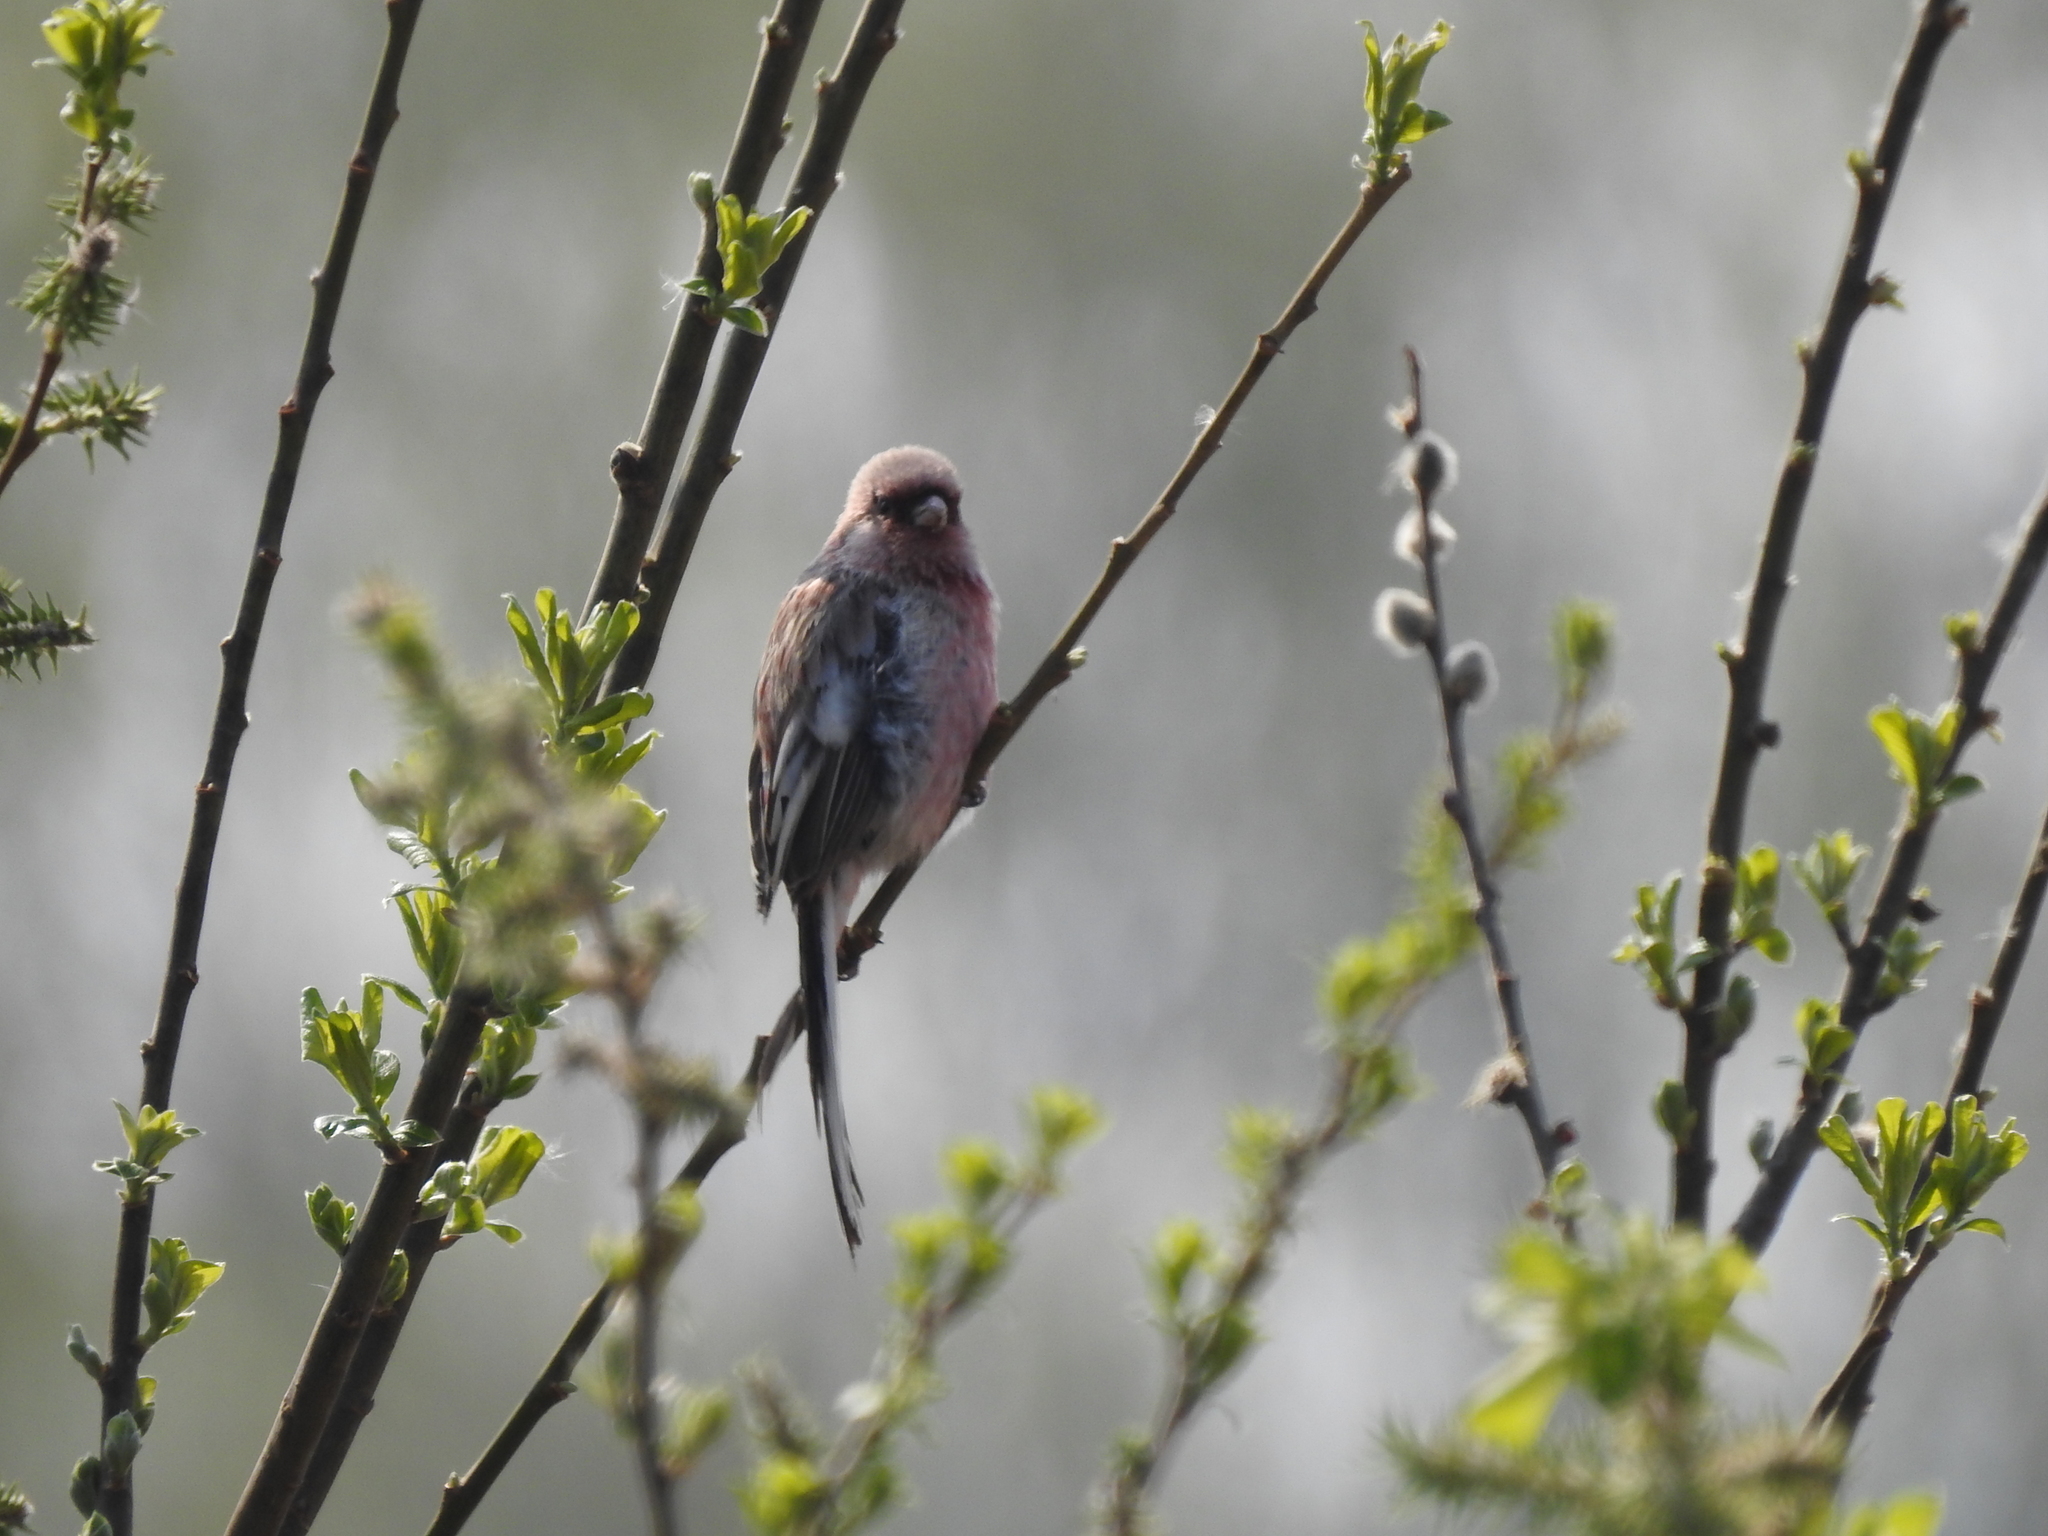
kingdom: Animalia
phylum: Chordata
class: Aves
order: Passeriformes
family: Fringillidae
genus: Carpodacus
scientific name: Carpodacus sibiricus
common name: Long-tailed rosefinch
